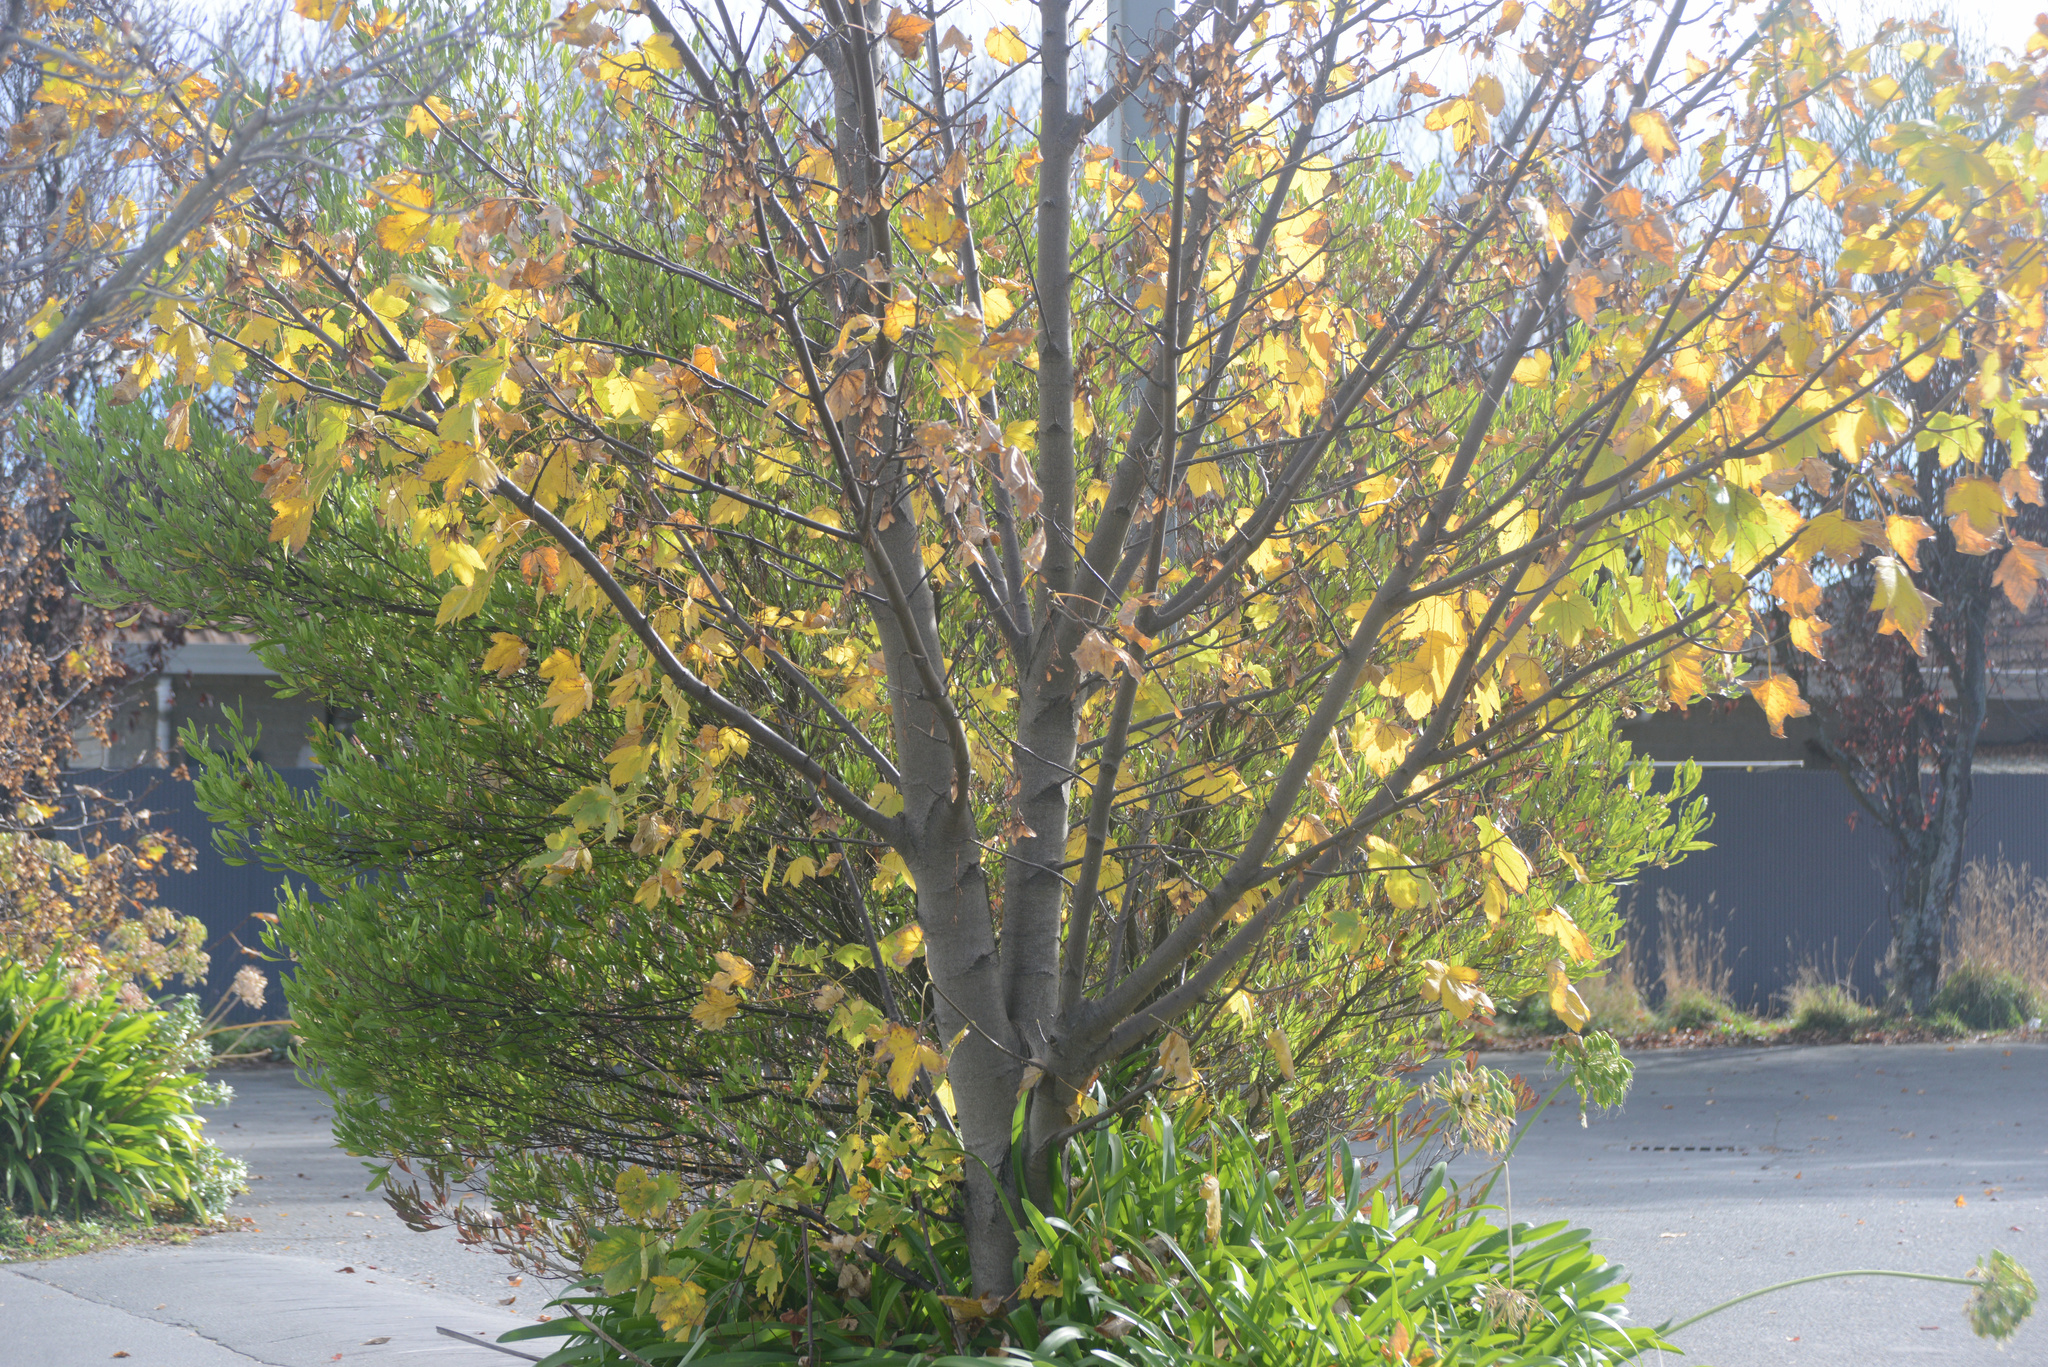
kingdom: Plantae
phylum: Tracheophyta
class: Magnoliopsida
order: Sapindales
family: Sapindaceae
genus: Acer
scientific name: Acer pseudoplatanus
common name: Sycamore
